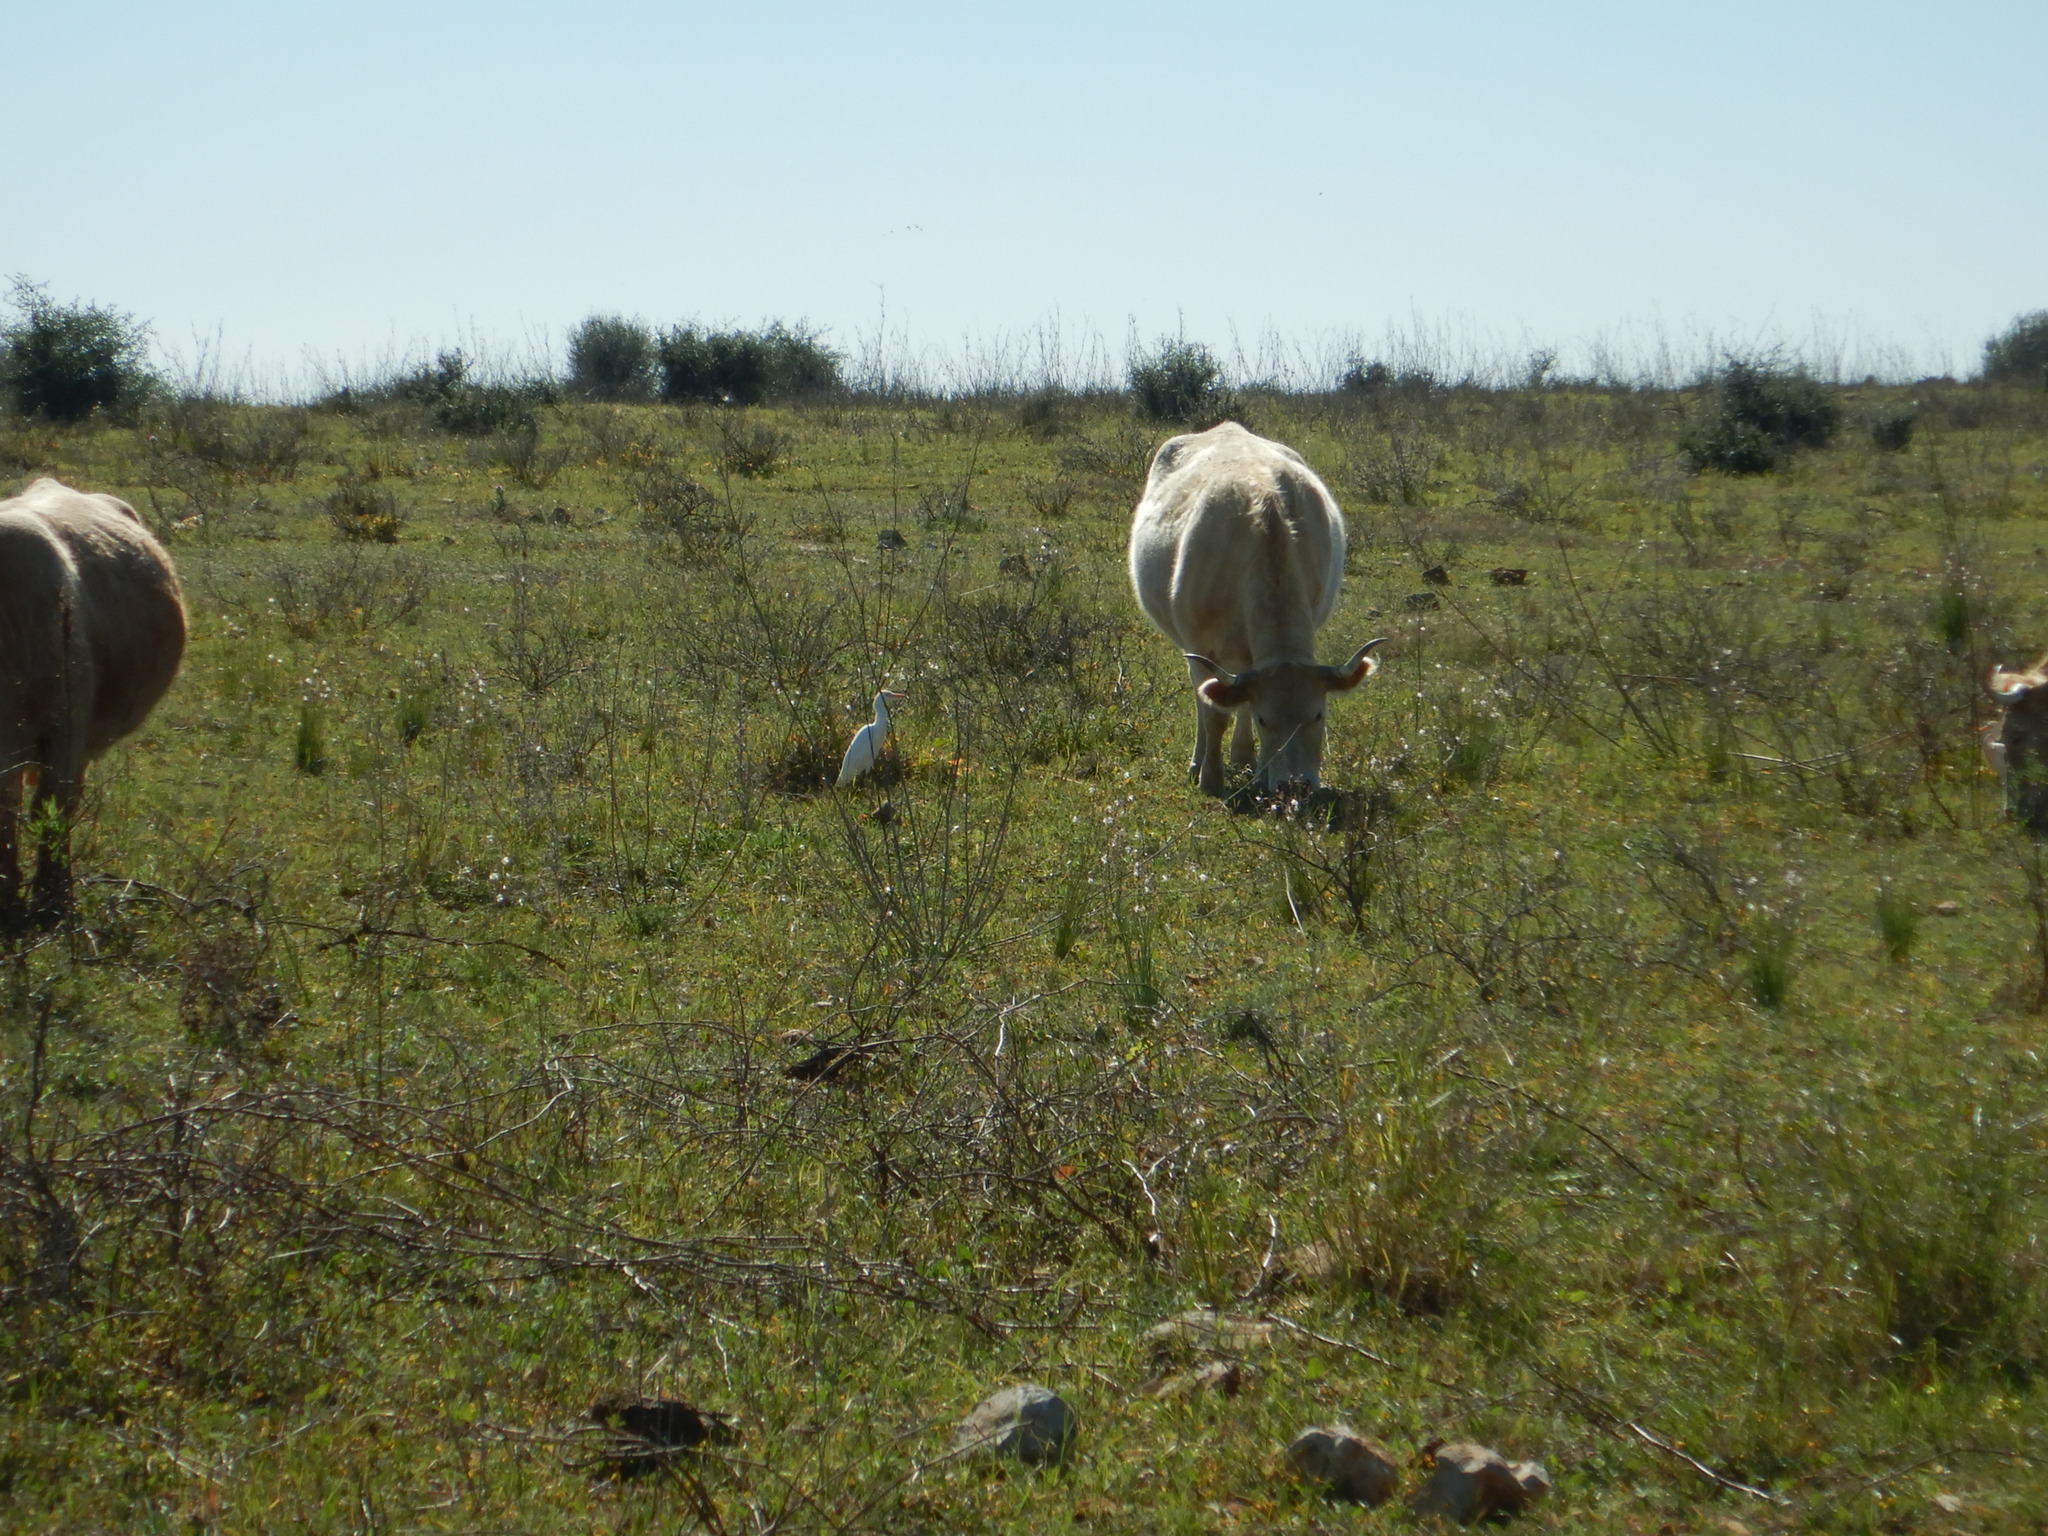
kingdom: Animalia
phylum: Chordata
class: Aves
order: Pelecaniformes
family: Ardeidae
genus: Bubulcus
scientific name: Bubulcus ibis
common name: Cattle egret
